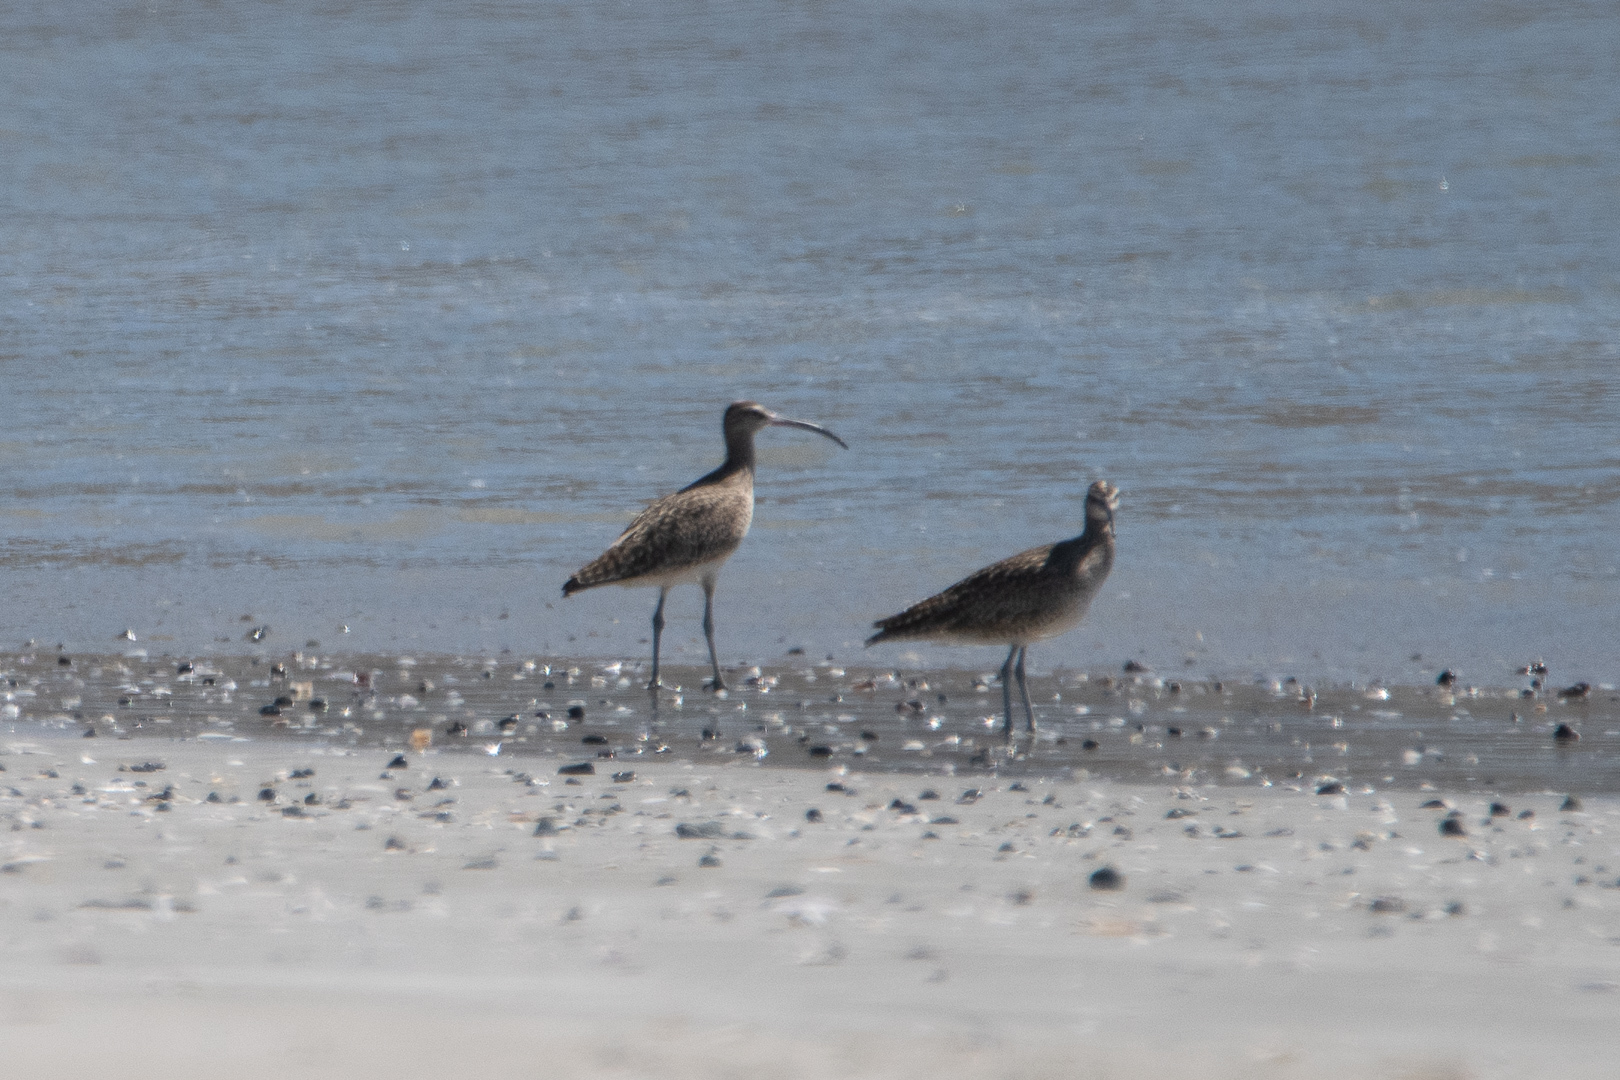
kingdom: Animalia
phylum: Chordata
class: Aves
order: Charadriiformes
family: Scolopacidae
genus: Numenius
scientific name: Numenius phaeopus
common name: Whimbrel
